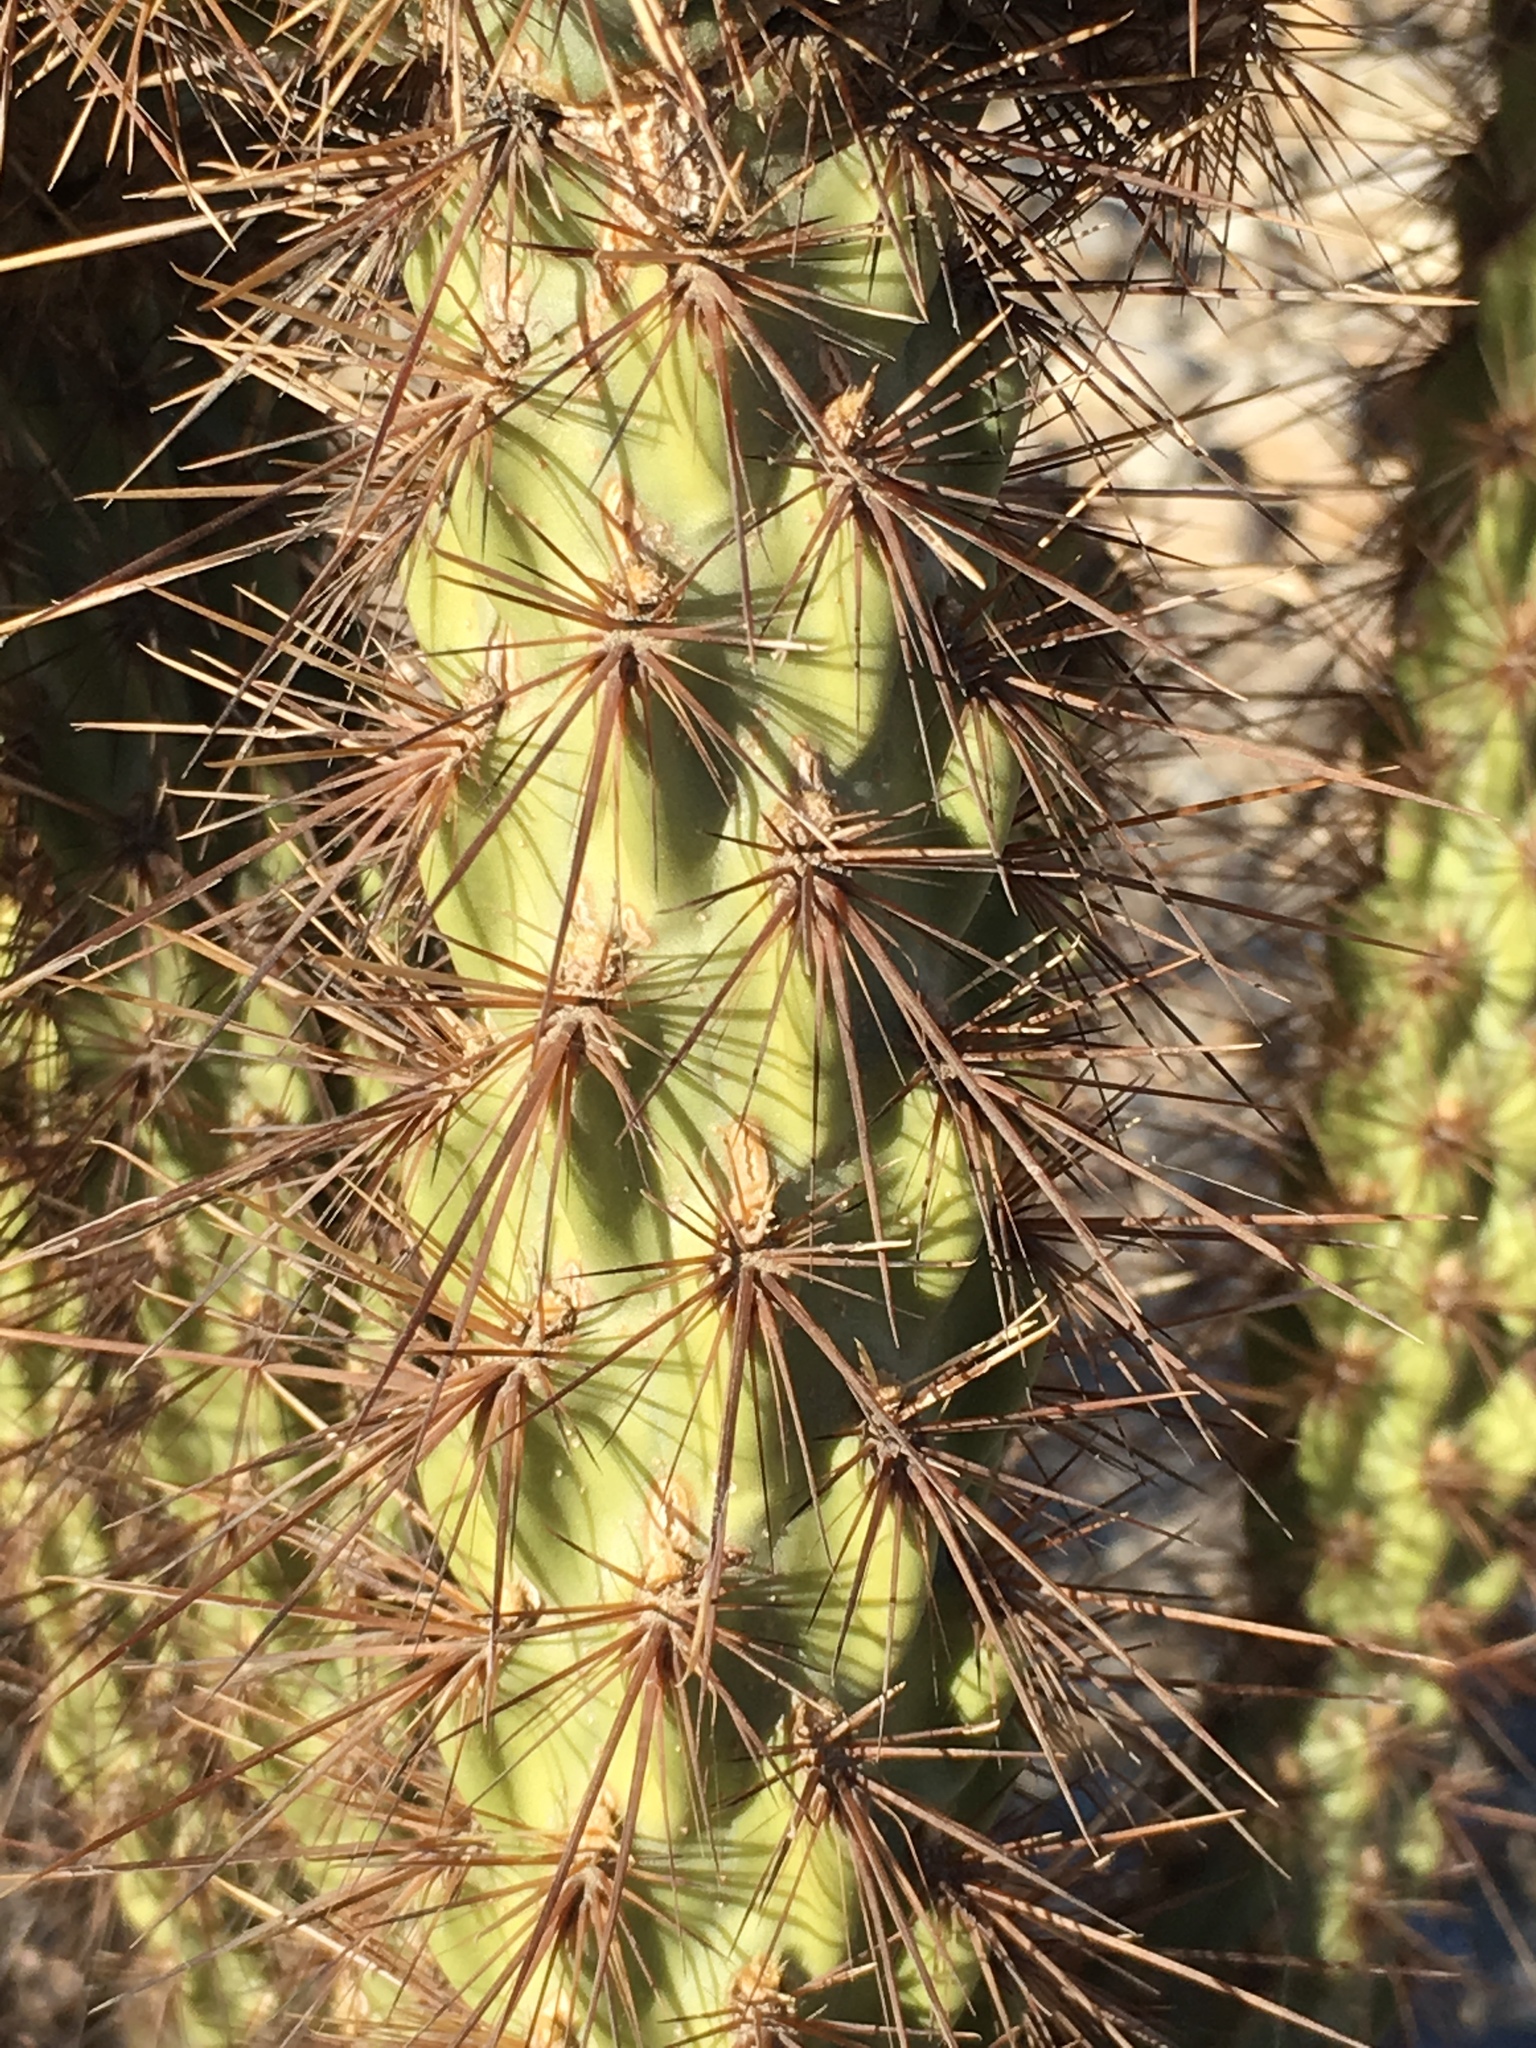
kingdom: Plantae
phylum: Tracheophyta
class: Magnoliopsida
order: Caryophyllales
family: Cactaceae
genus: Cylindropuntia
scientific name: Cylindropuntia ganderi
